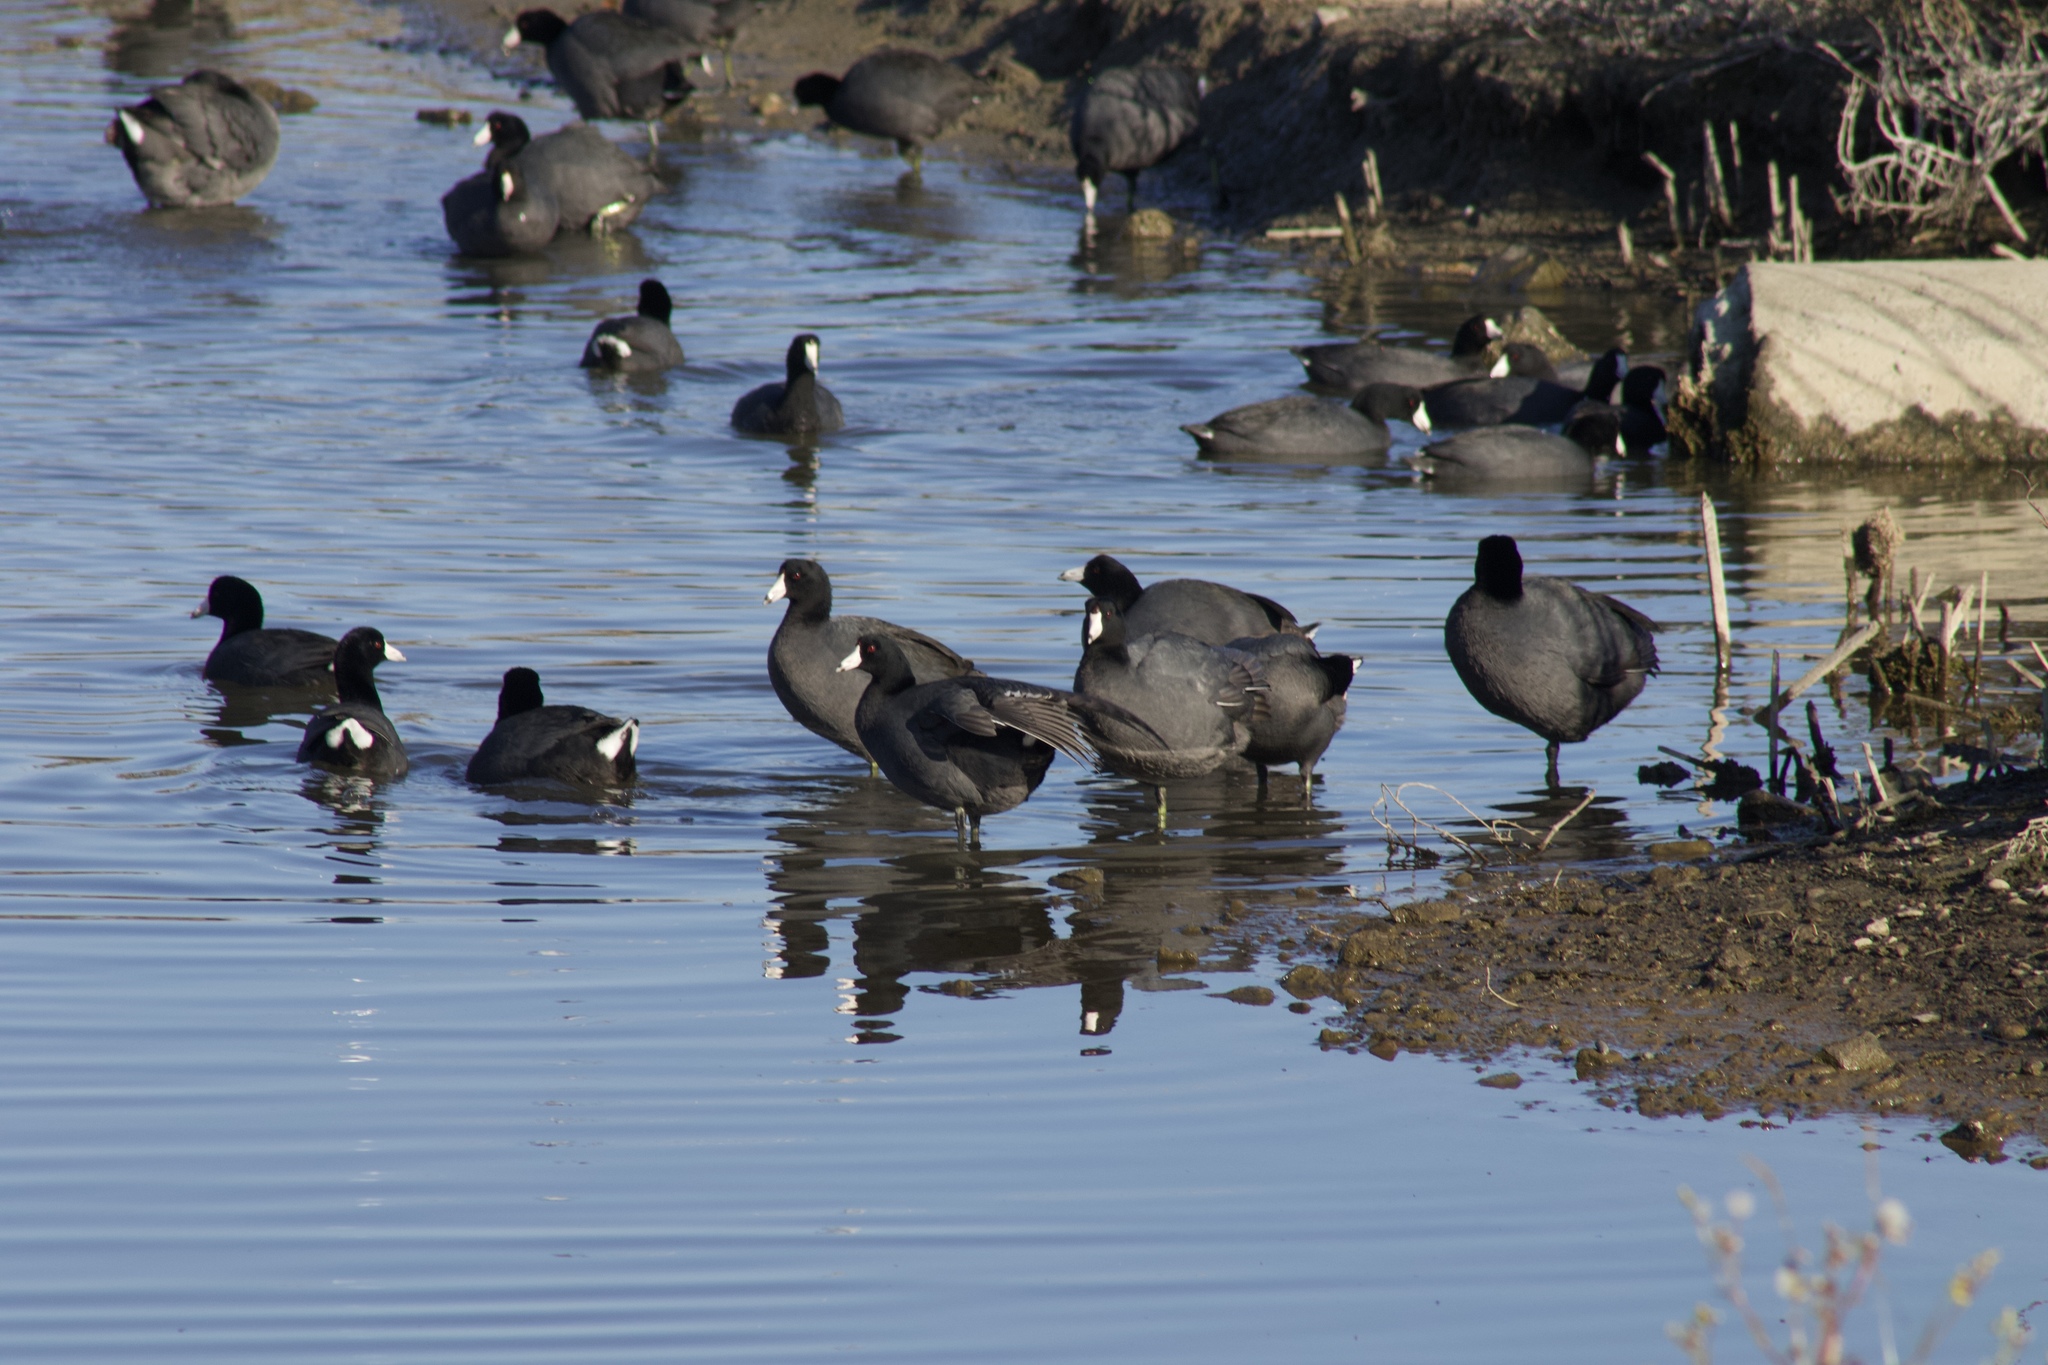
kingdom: Animalia
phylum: Chordata
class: Aves
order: Gruiformes
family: Rallidae
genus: Fulica
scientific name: Fulica americana
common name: American coot
